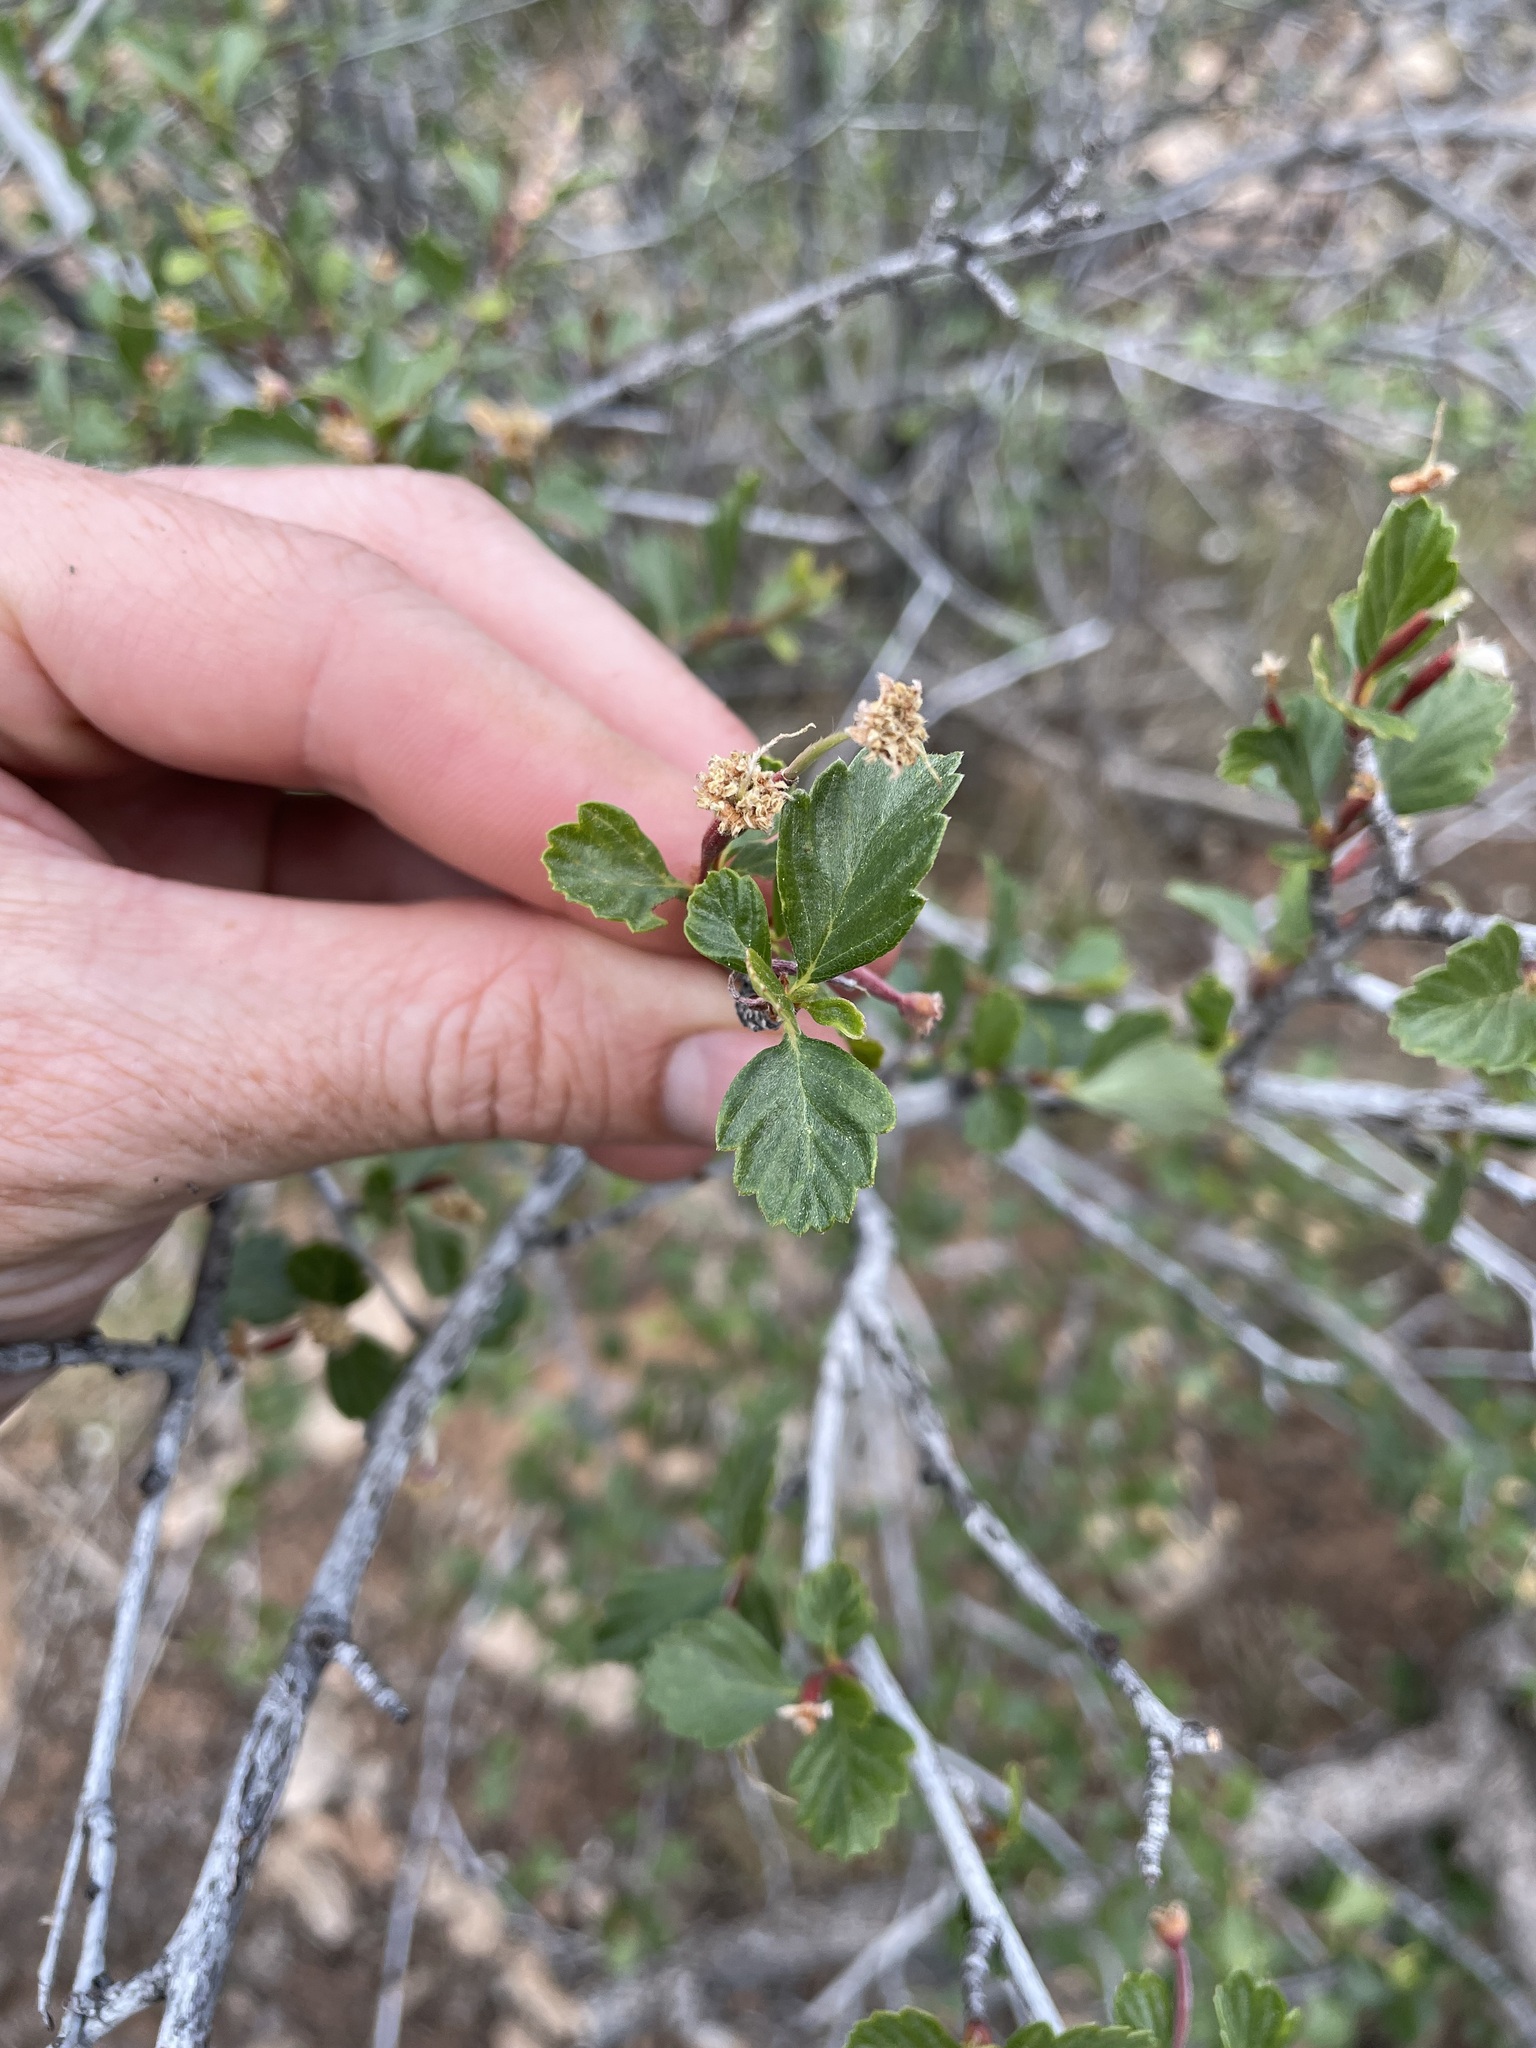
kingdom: Plantae
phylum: Tracheophyta
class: Magnoliopsida
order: Rosales
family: Rosaceae
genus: Cercocarpus
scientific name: Cercocarpus montanus
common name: Alder-leaf cercocarpus
